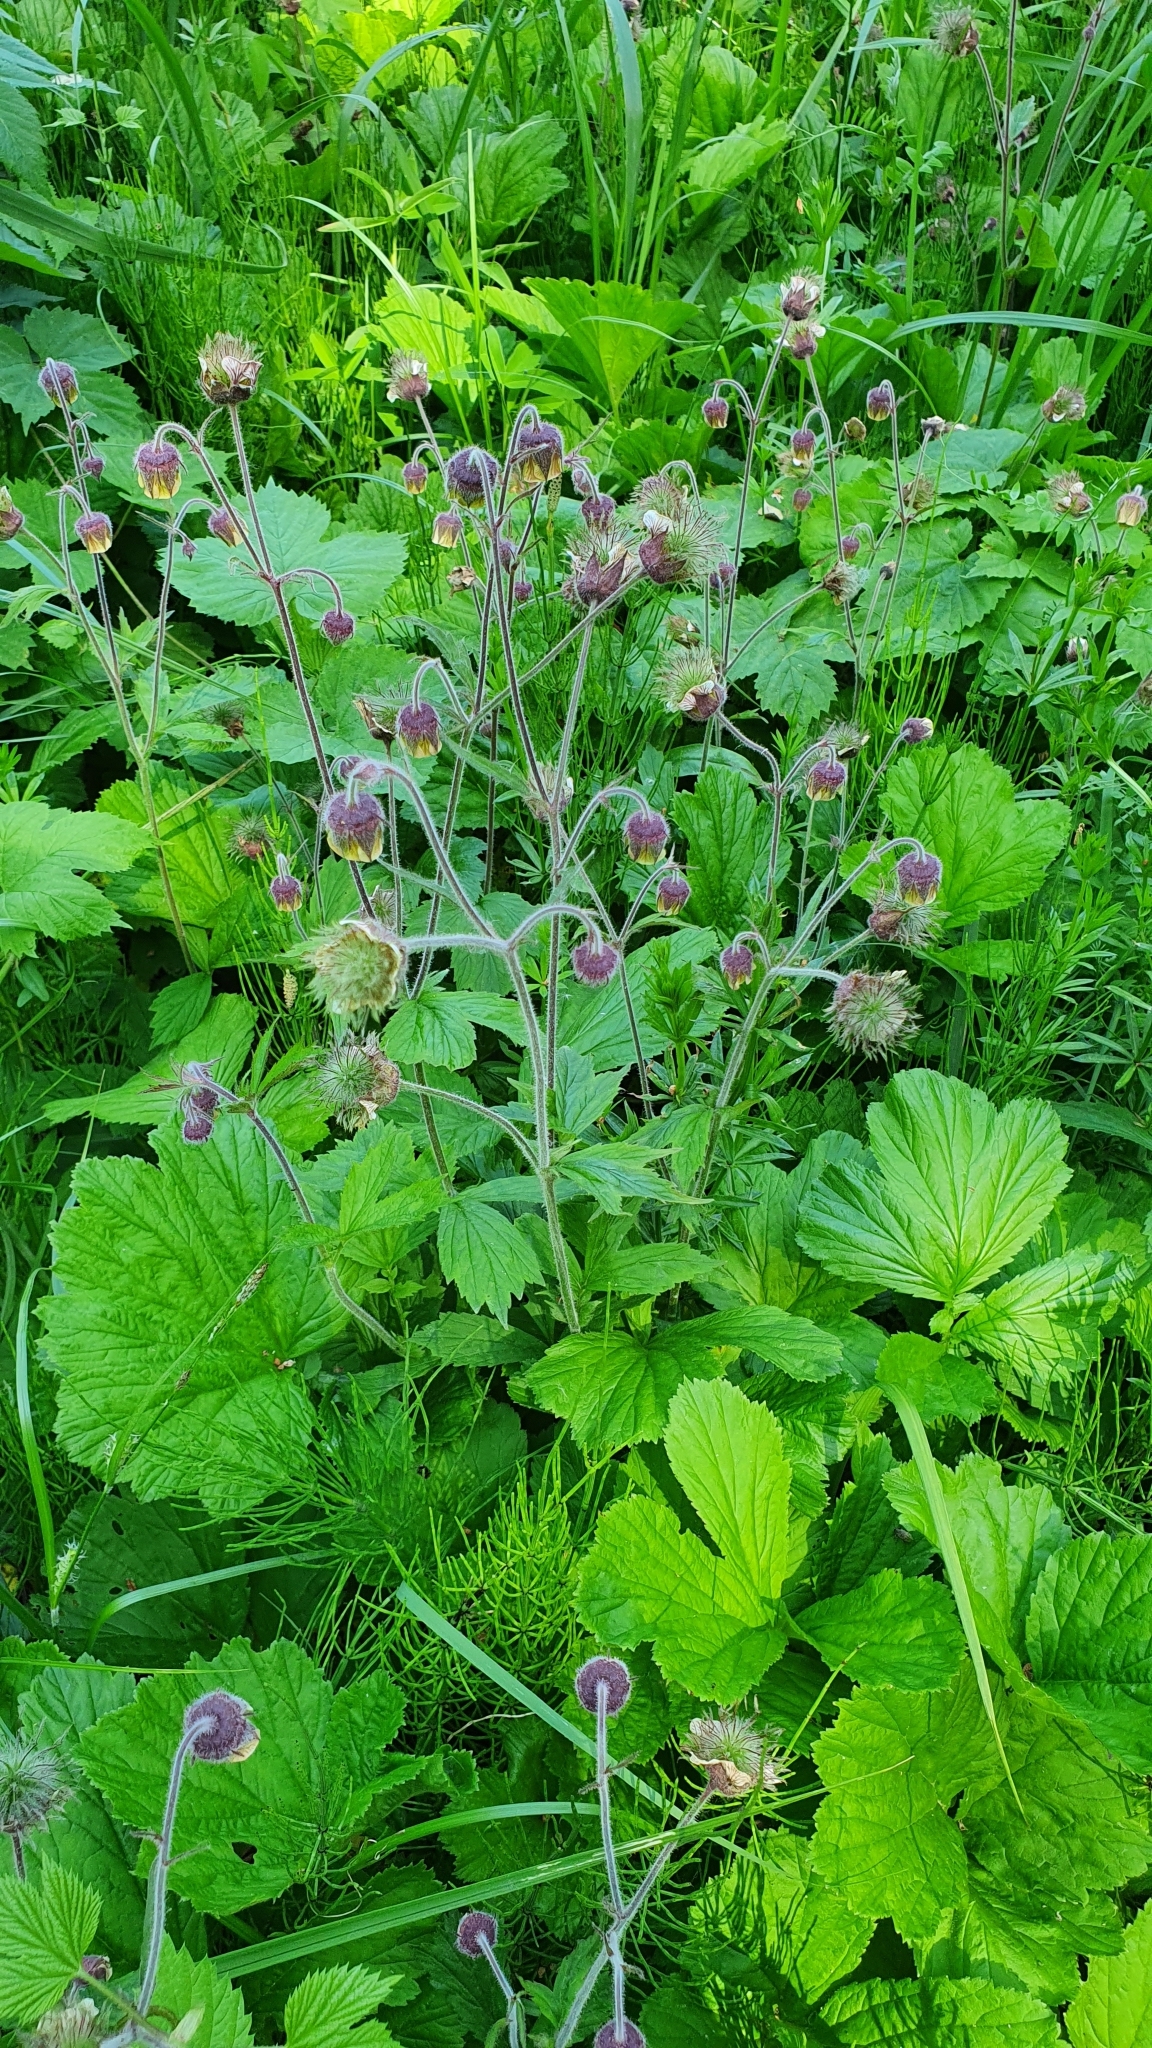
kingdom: Plantae
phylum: Tracheophyta
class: Magnoliopsida
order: Rosales
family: Rosaceae
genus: Geum
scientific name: Geum rivale
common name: Water avens
